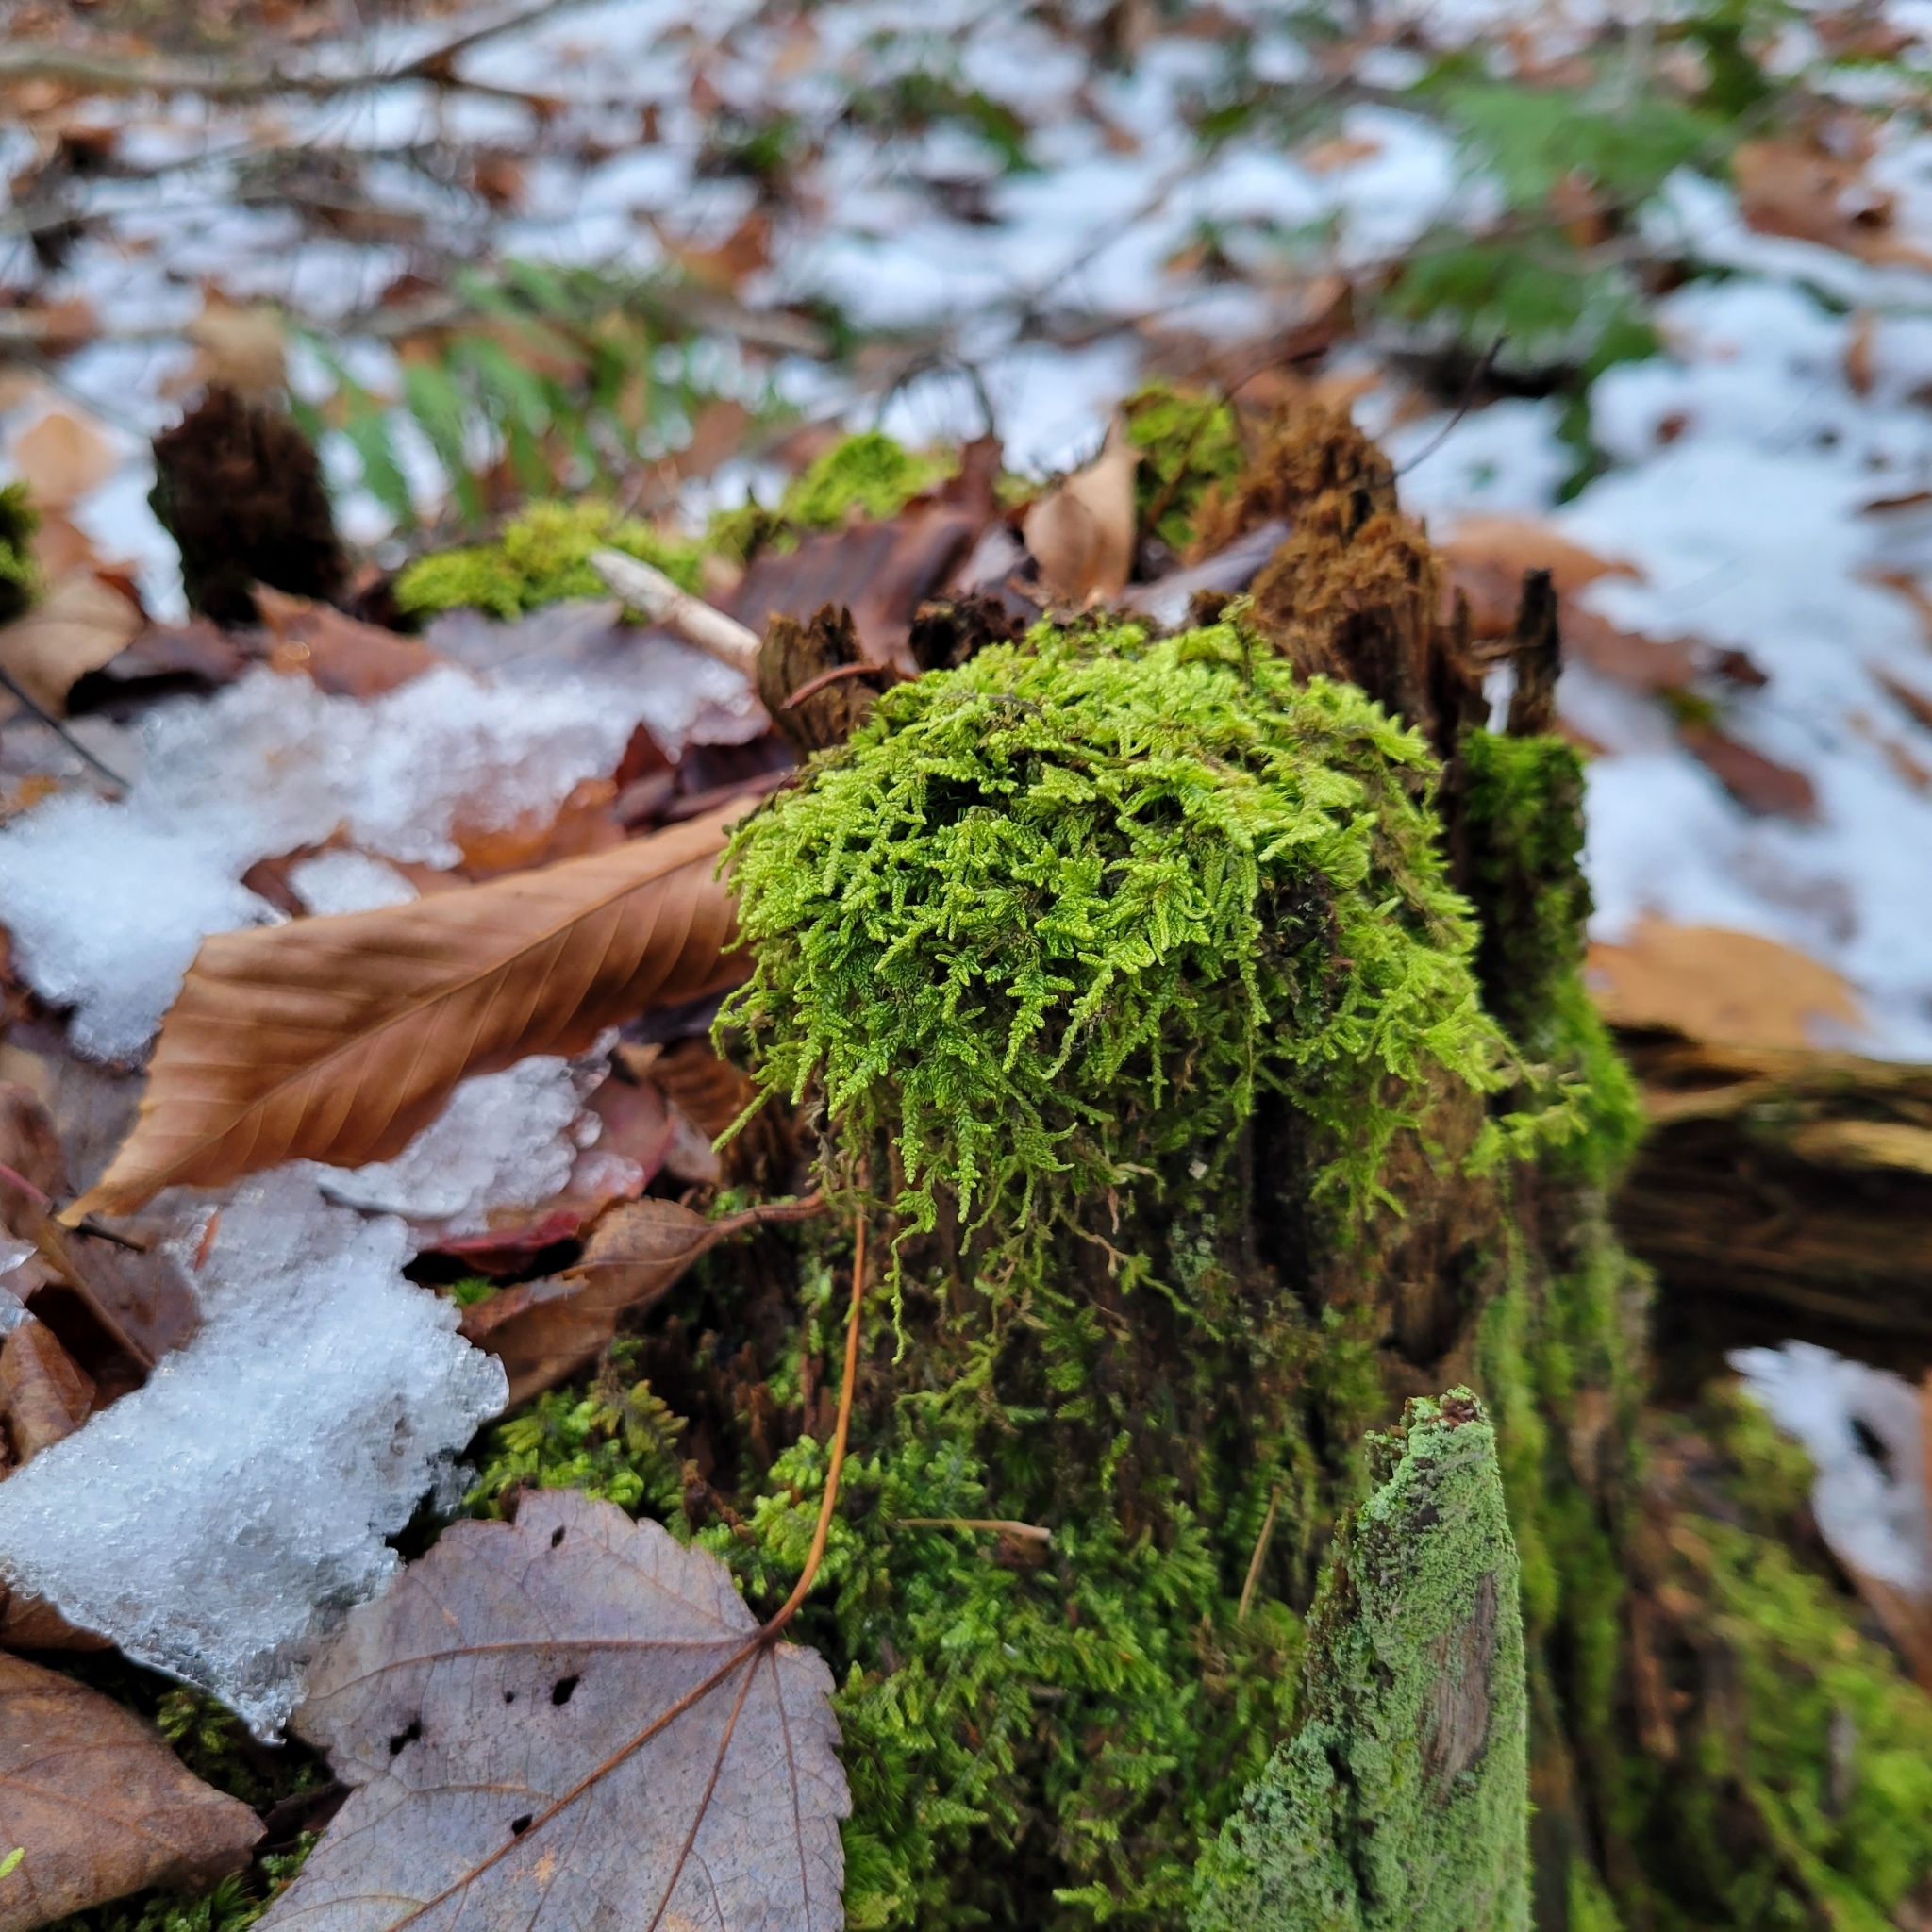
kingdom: Plantae
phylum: Bryophyta
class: Bryopsida
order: Hypnales
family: Callicladiaceae
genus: Callicladium
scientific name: Callicladium imponens
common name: Brocade moss
